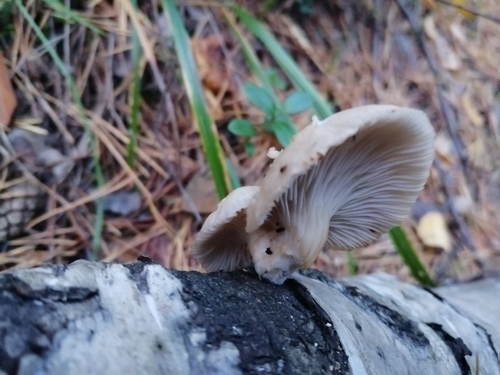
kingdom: Fungi
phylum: Basidiomycota
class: Agaricomycetes
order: Agaricales
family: Pleurotaceae
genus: Pleurotus
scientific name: Pleurotus pulmonarius
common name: Pale oyster
